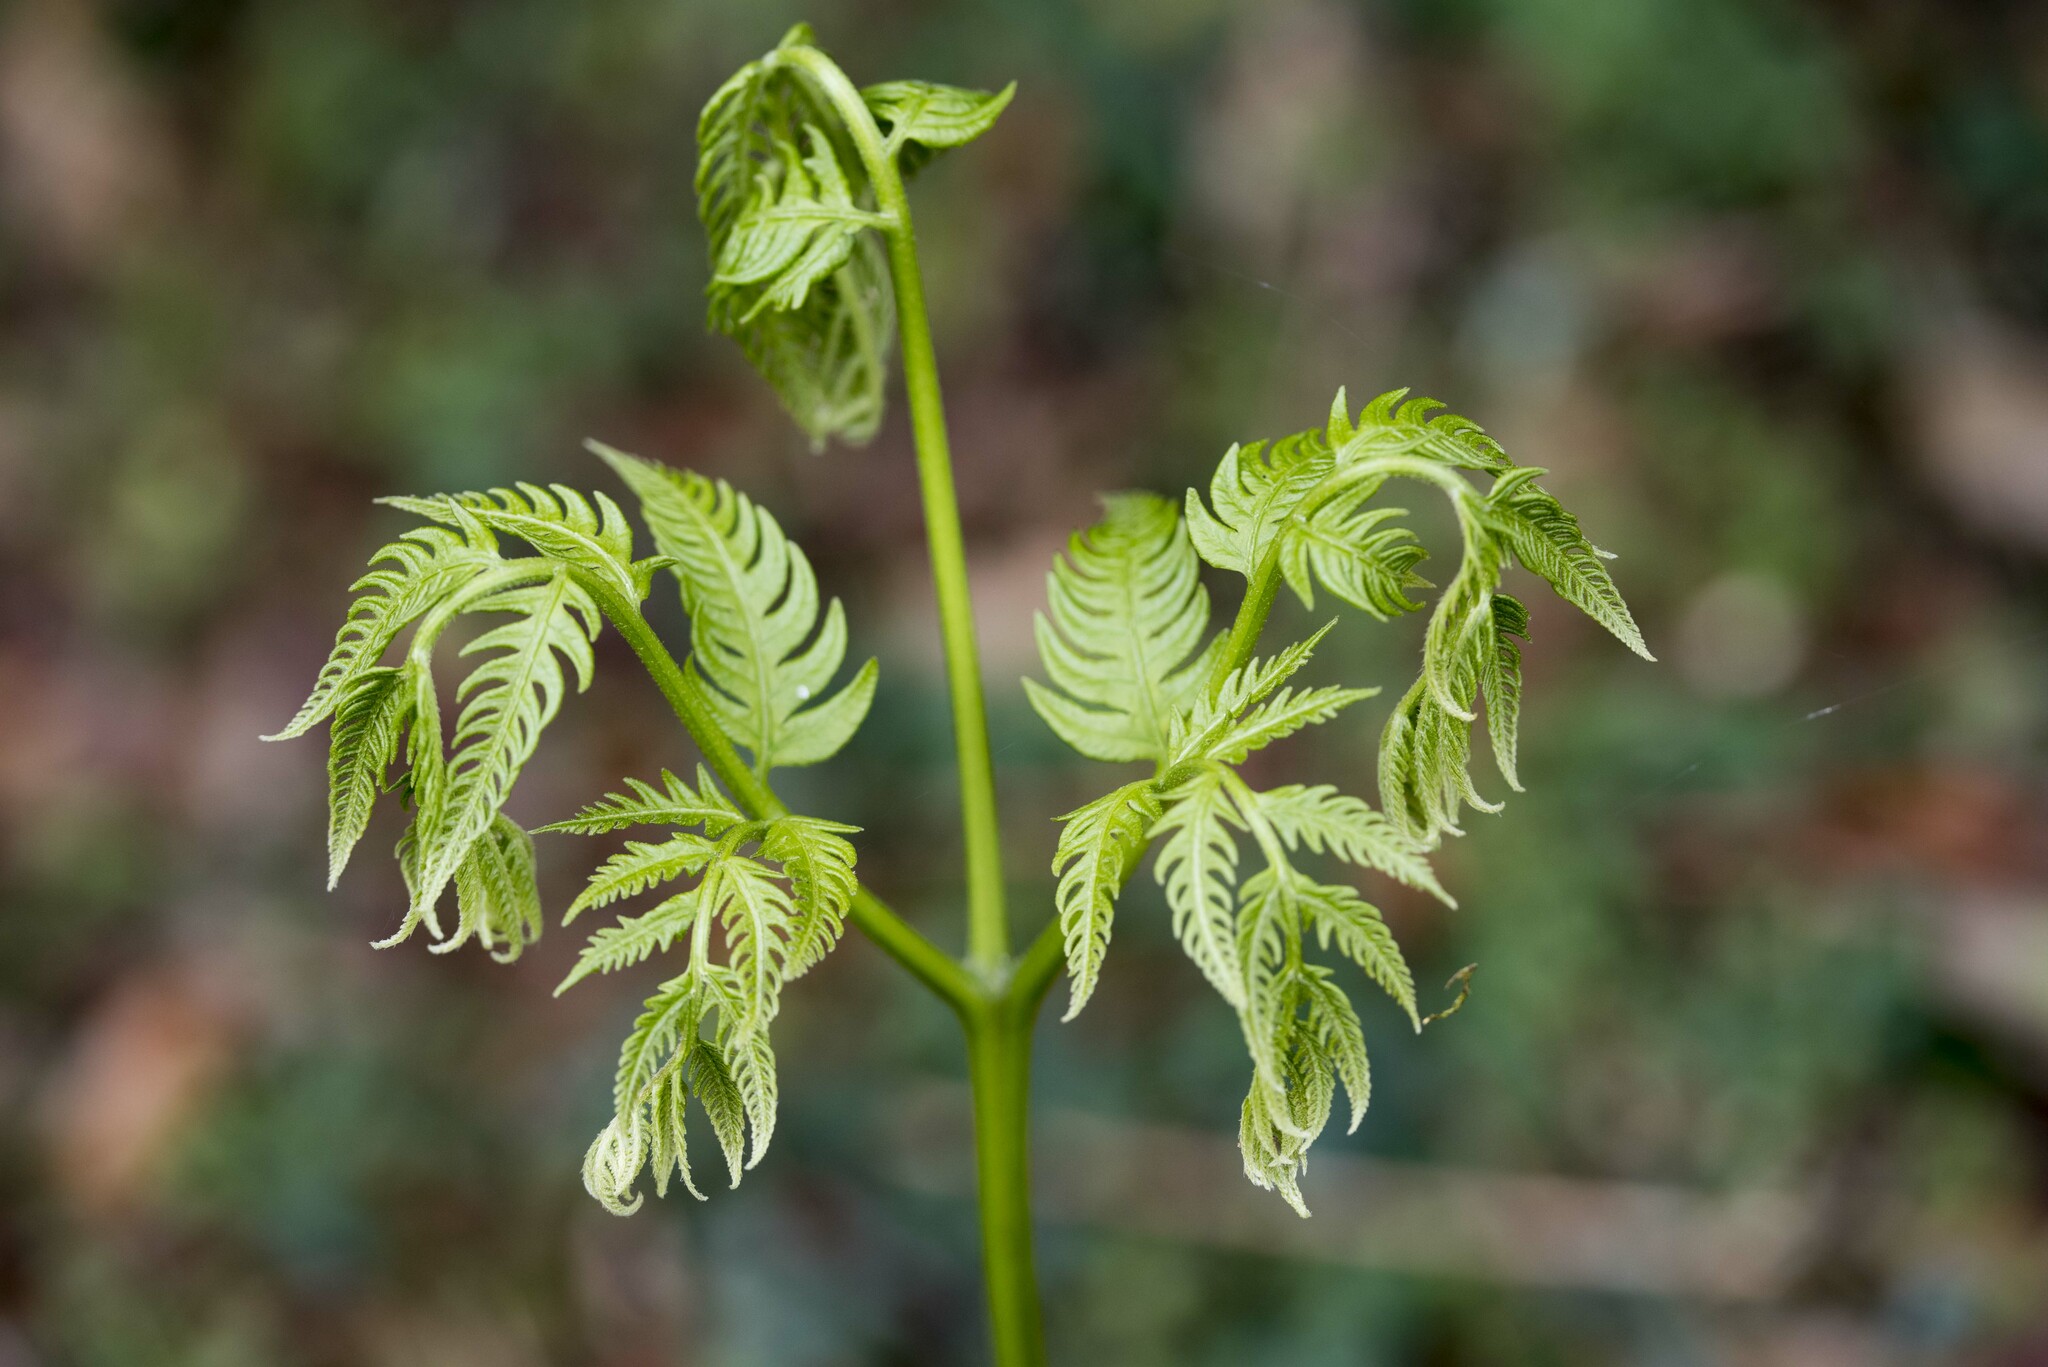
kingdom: Plantae
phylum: Tracheophyta
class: Polypodiopsida
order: Polypodiales
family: Pteridaceae
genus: Pteris
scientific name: Pteris wallichiana
